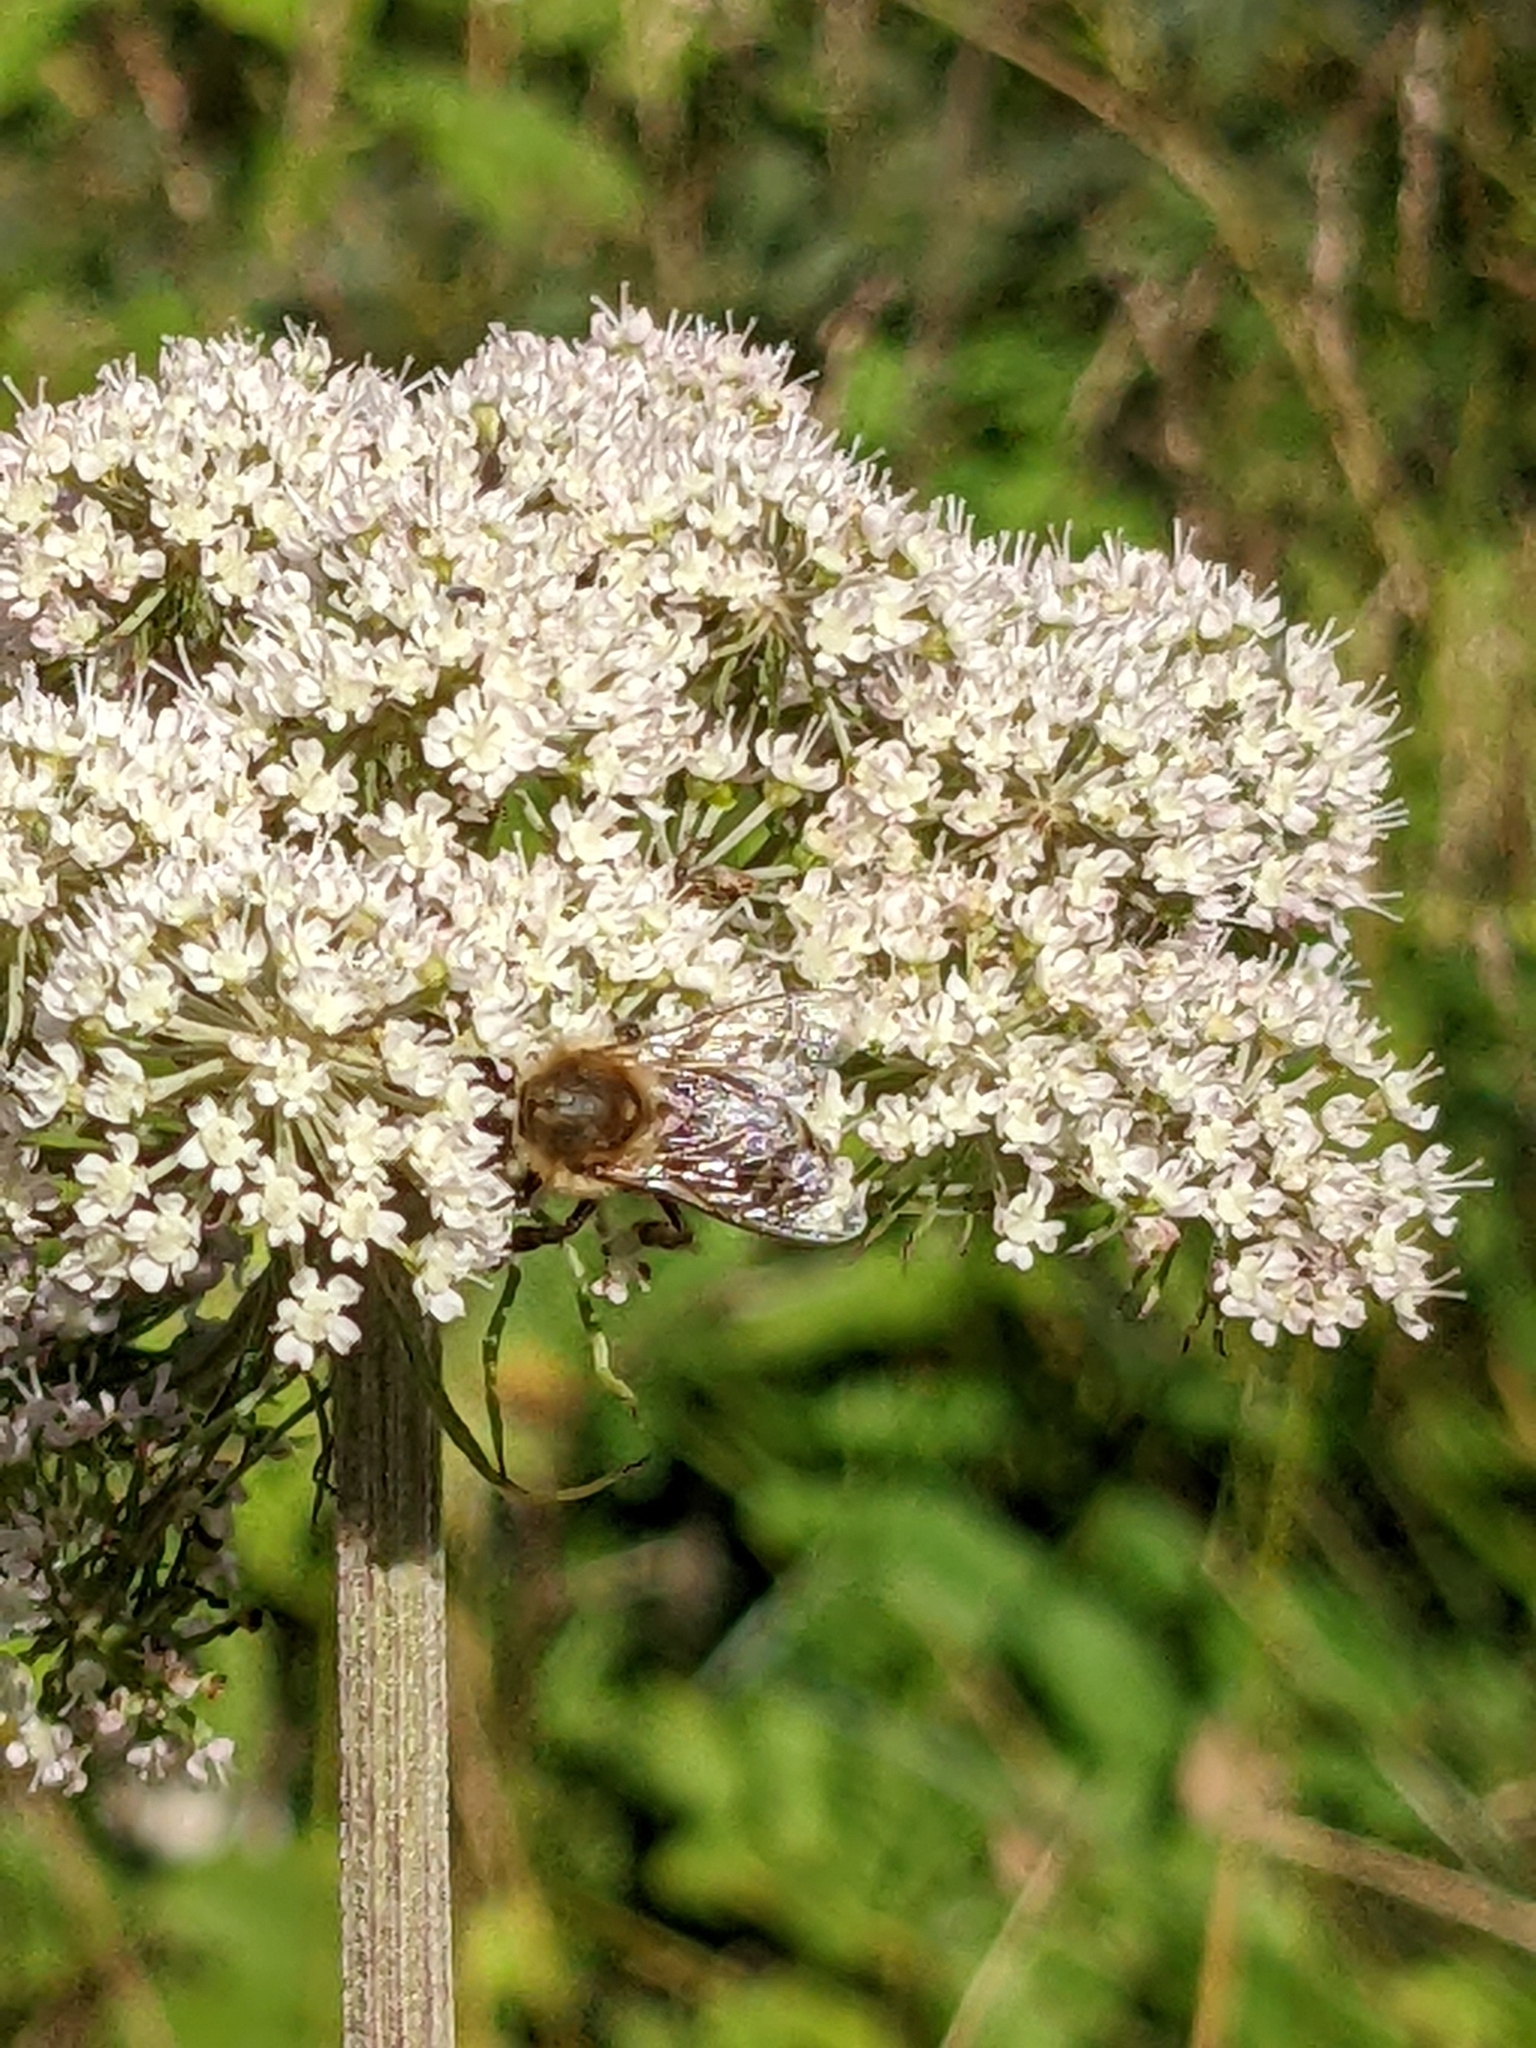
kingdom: Animalia
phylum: Arthropoda
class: Insecta
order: Hymenoptera
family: Apidae
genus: Apis
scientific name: Apis mellifera
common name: Honey bee
